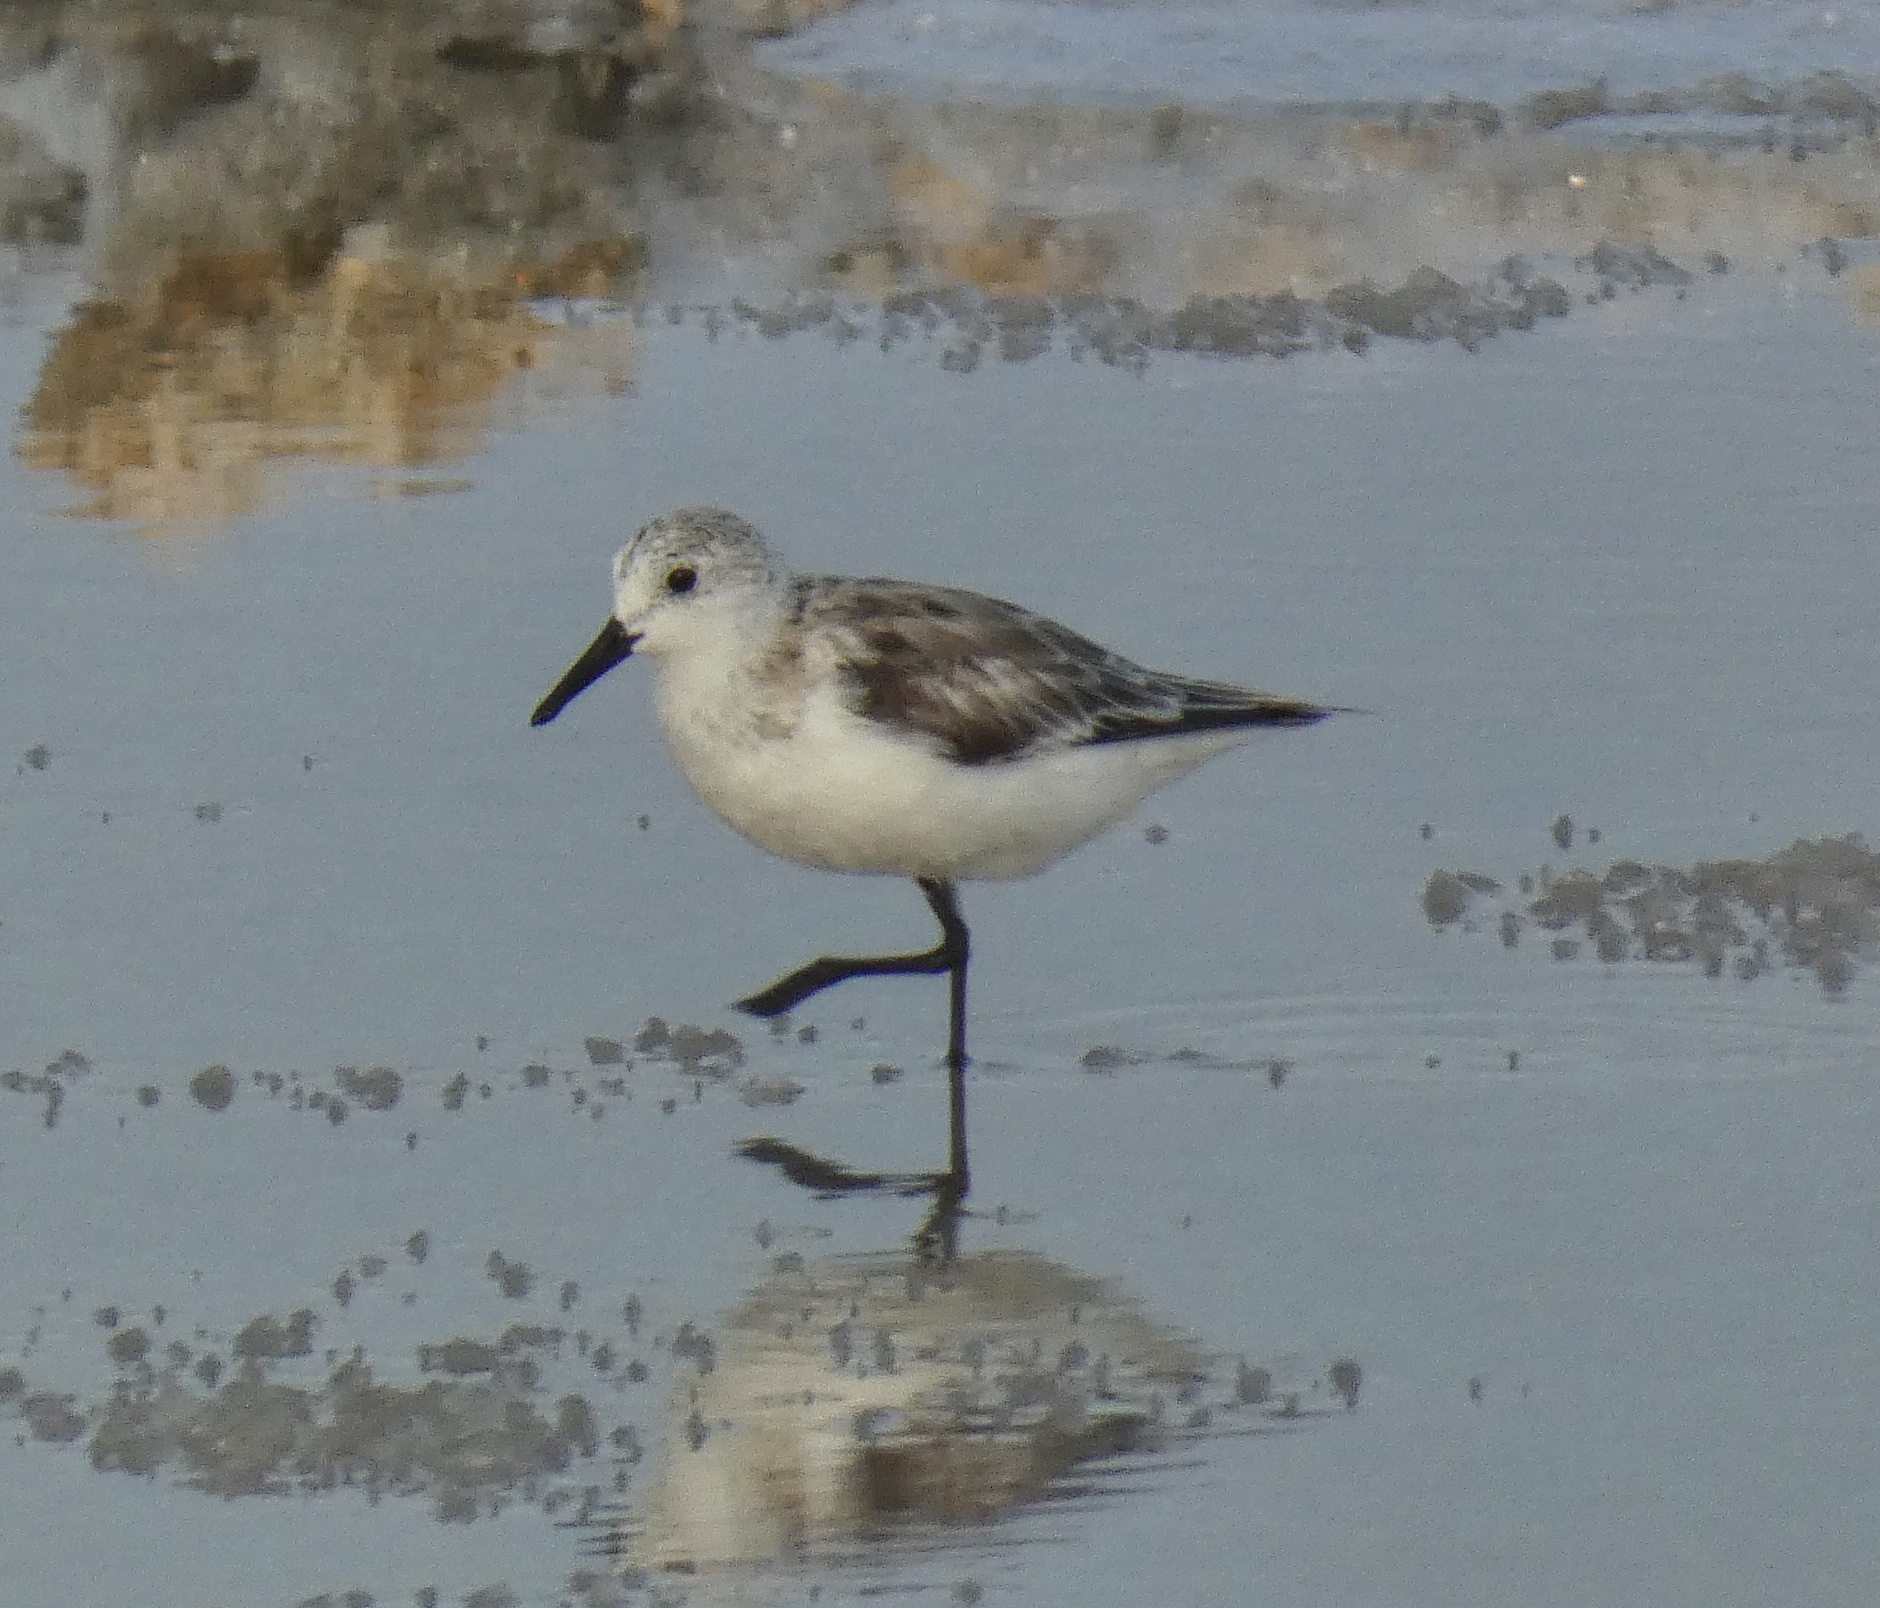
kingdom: Animalia
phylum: Chordata
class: Aves
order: Charadriiformes
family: Scolopacidae
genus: Calidris
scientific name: Calidris alba
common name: Sanderling
